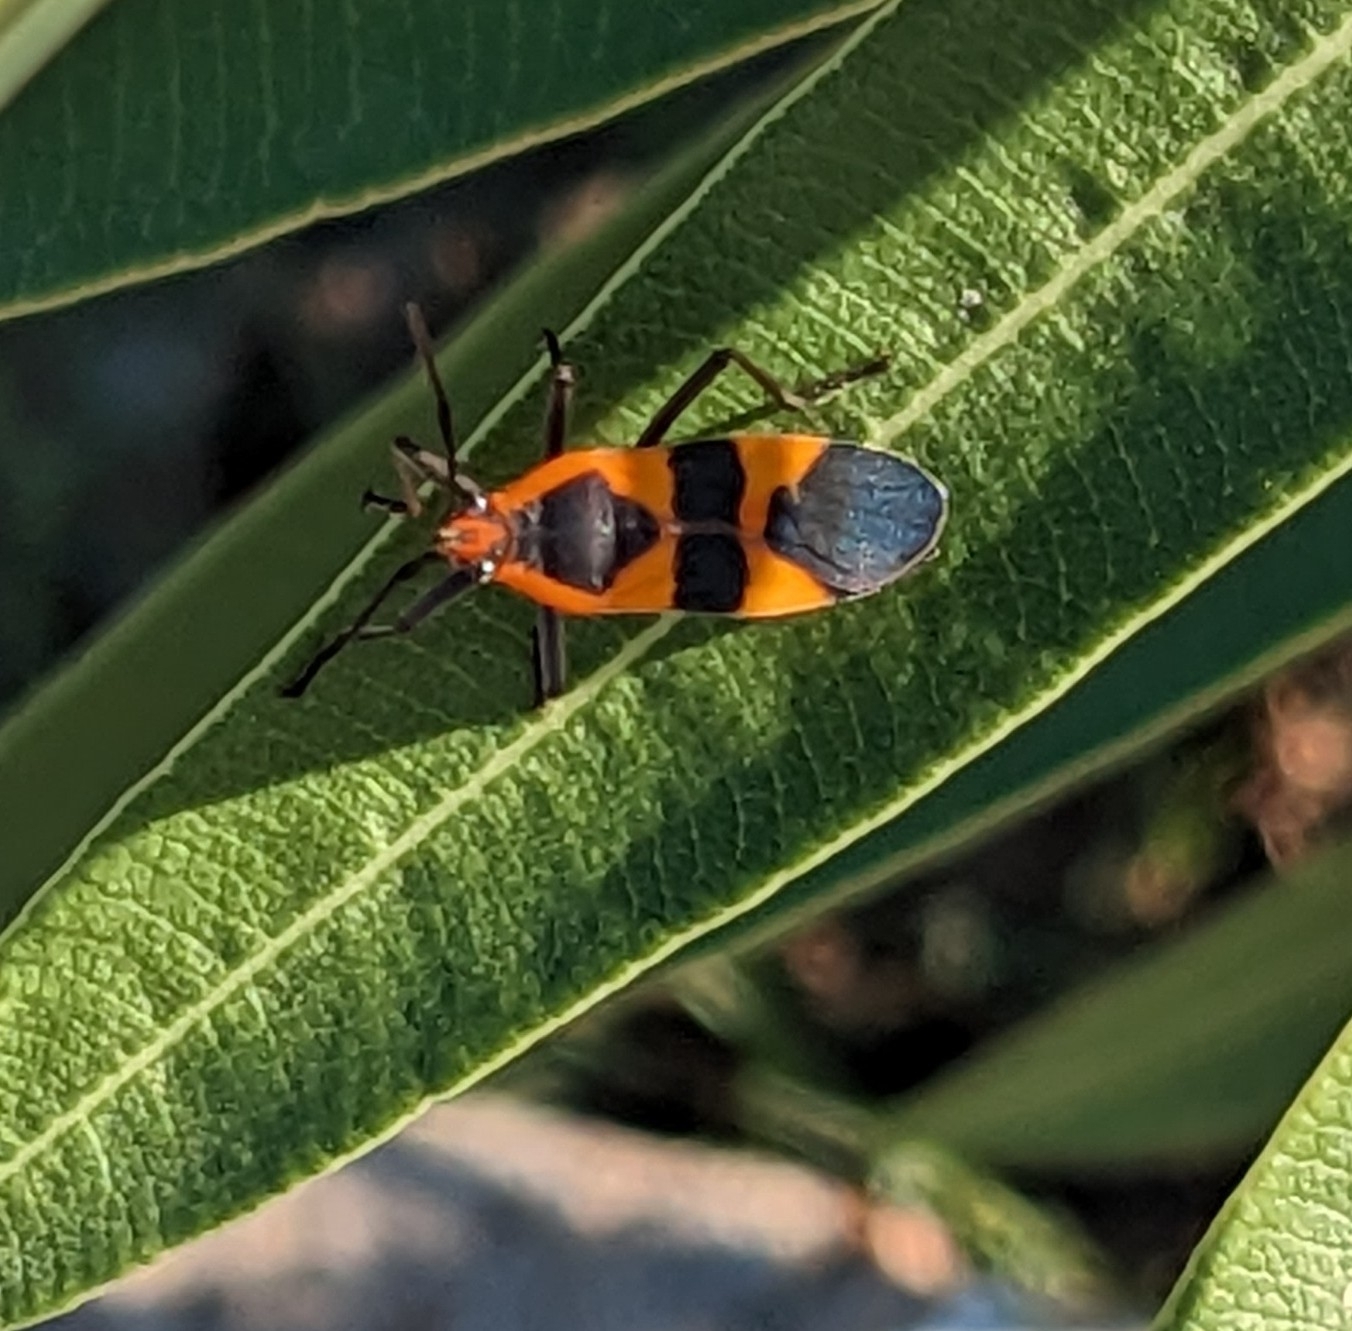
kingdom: Animalia
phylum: Arthropoda
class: Insecta
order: Hemiptera
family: Lygaeidae
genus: Oncopeltus
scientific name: Oncopeltus fasciatus
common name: Large milkweed bug
